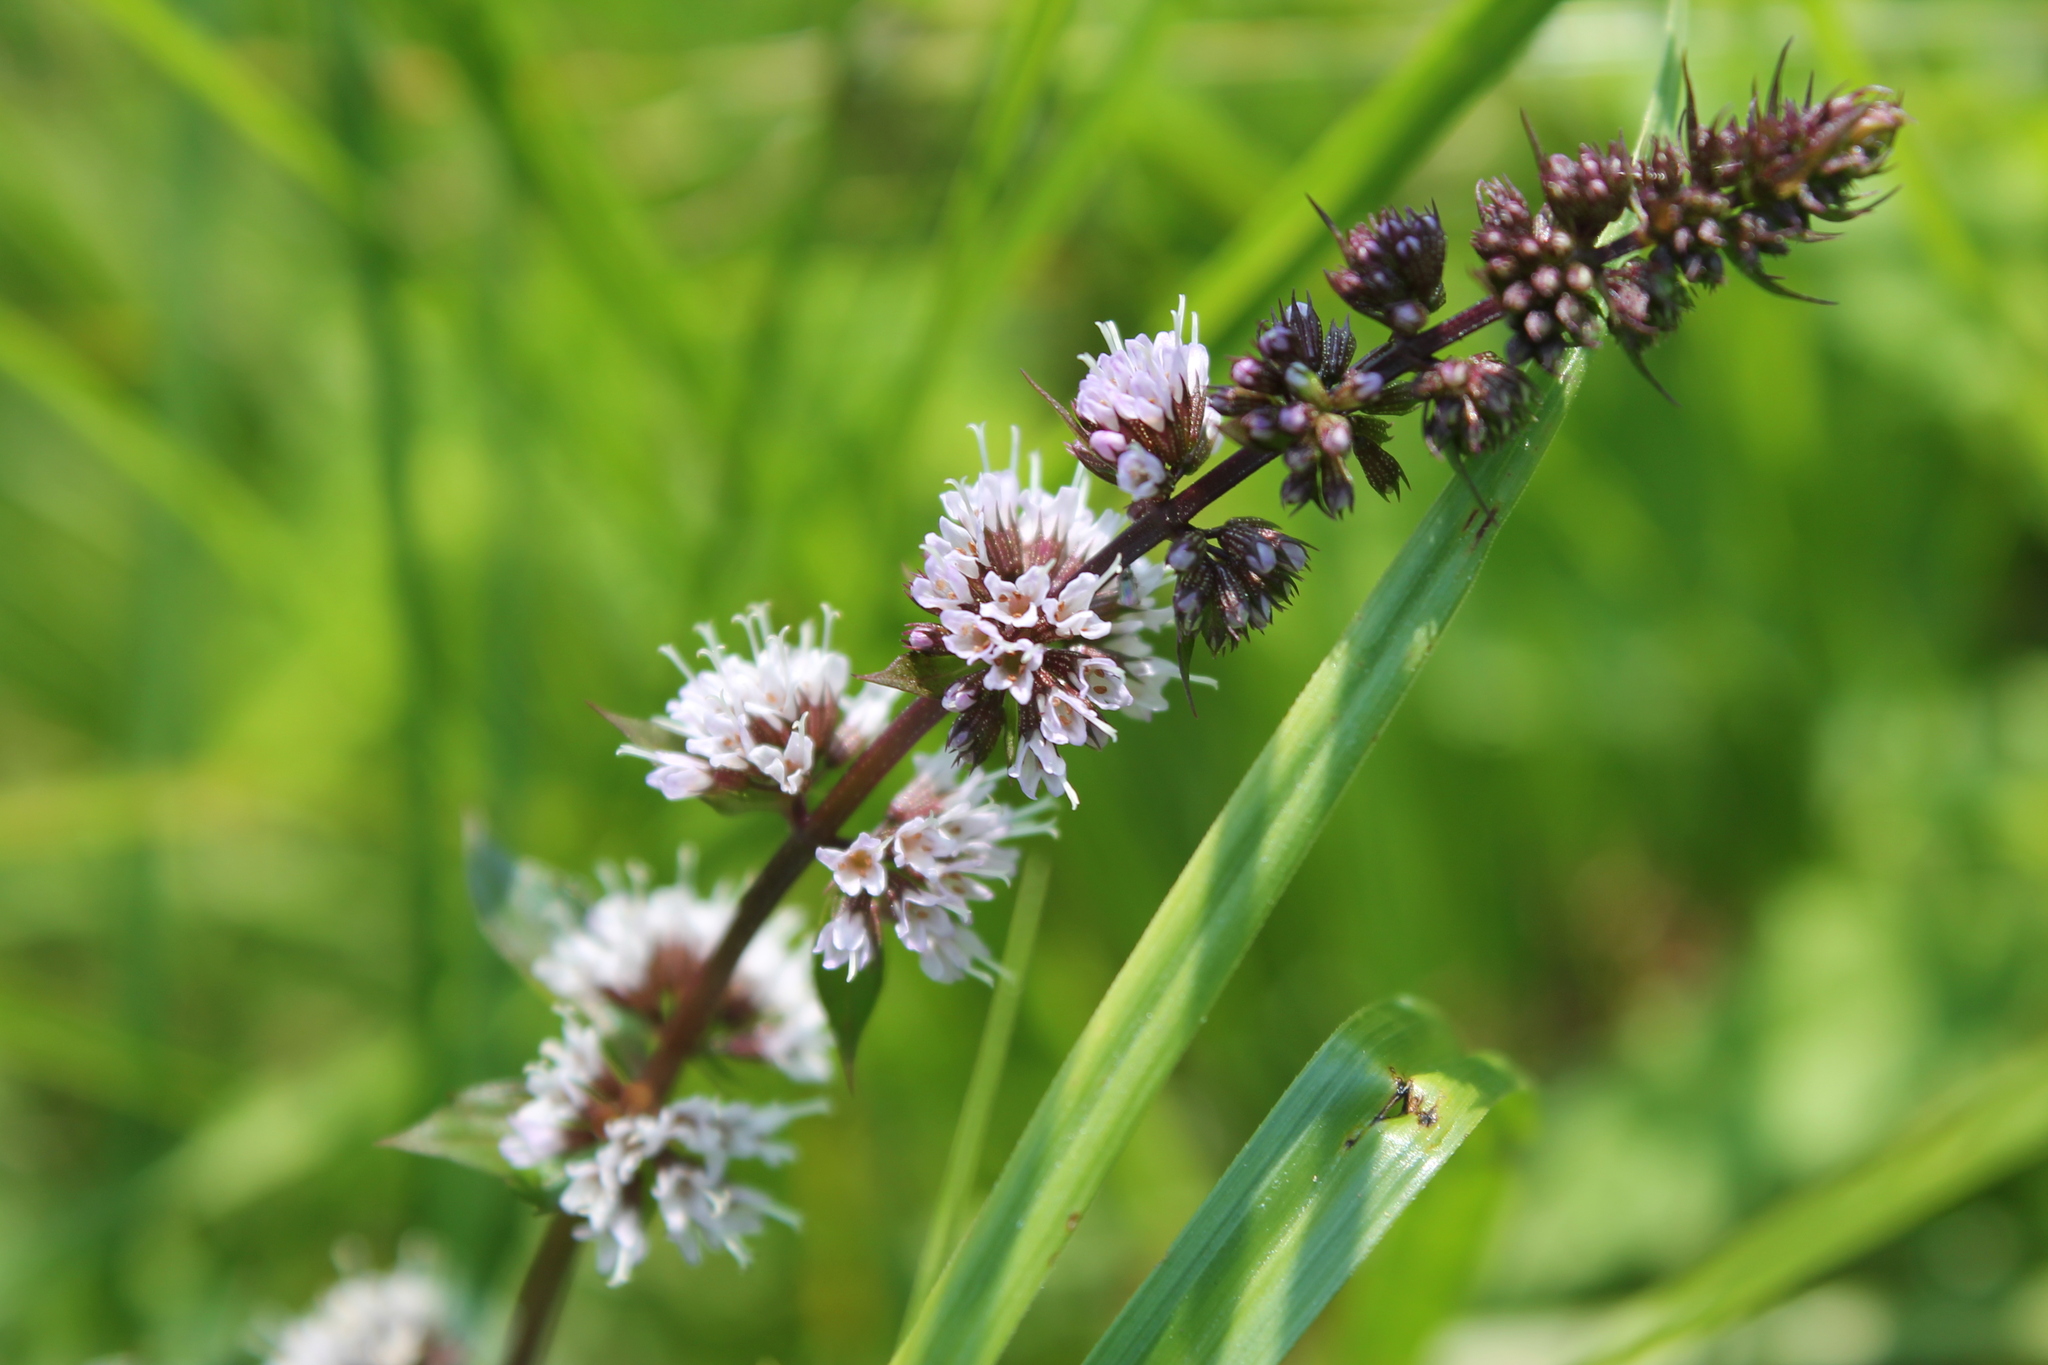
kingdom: Plantae
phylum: Tracheophyta
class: Magnoliopsida
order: Lamiales
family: Lamiaceae
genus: Mentha
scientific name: Mentha spicata
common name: Spearmint
